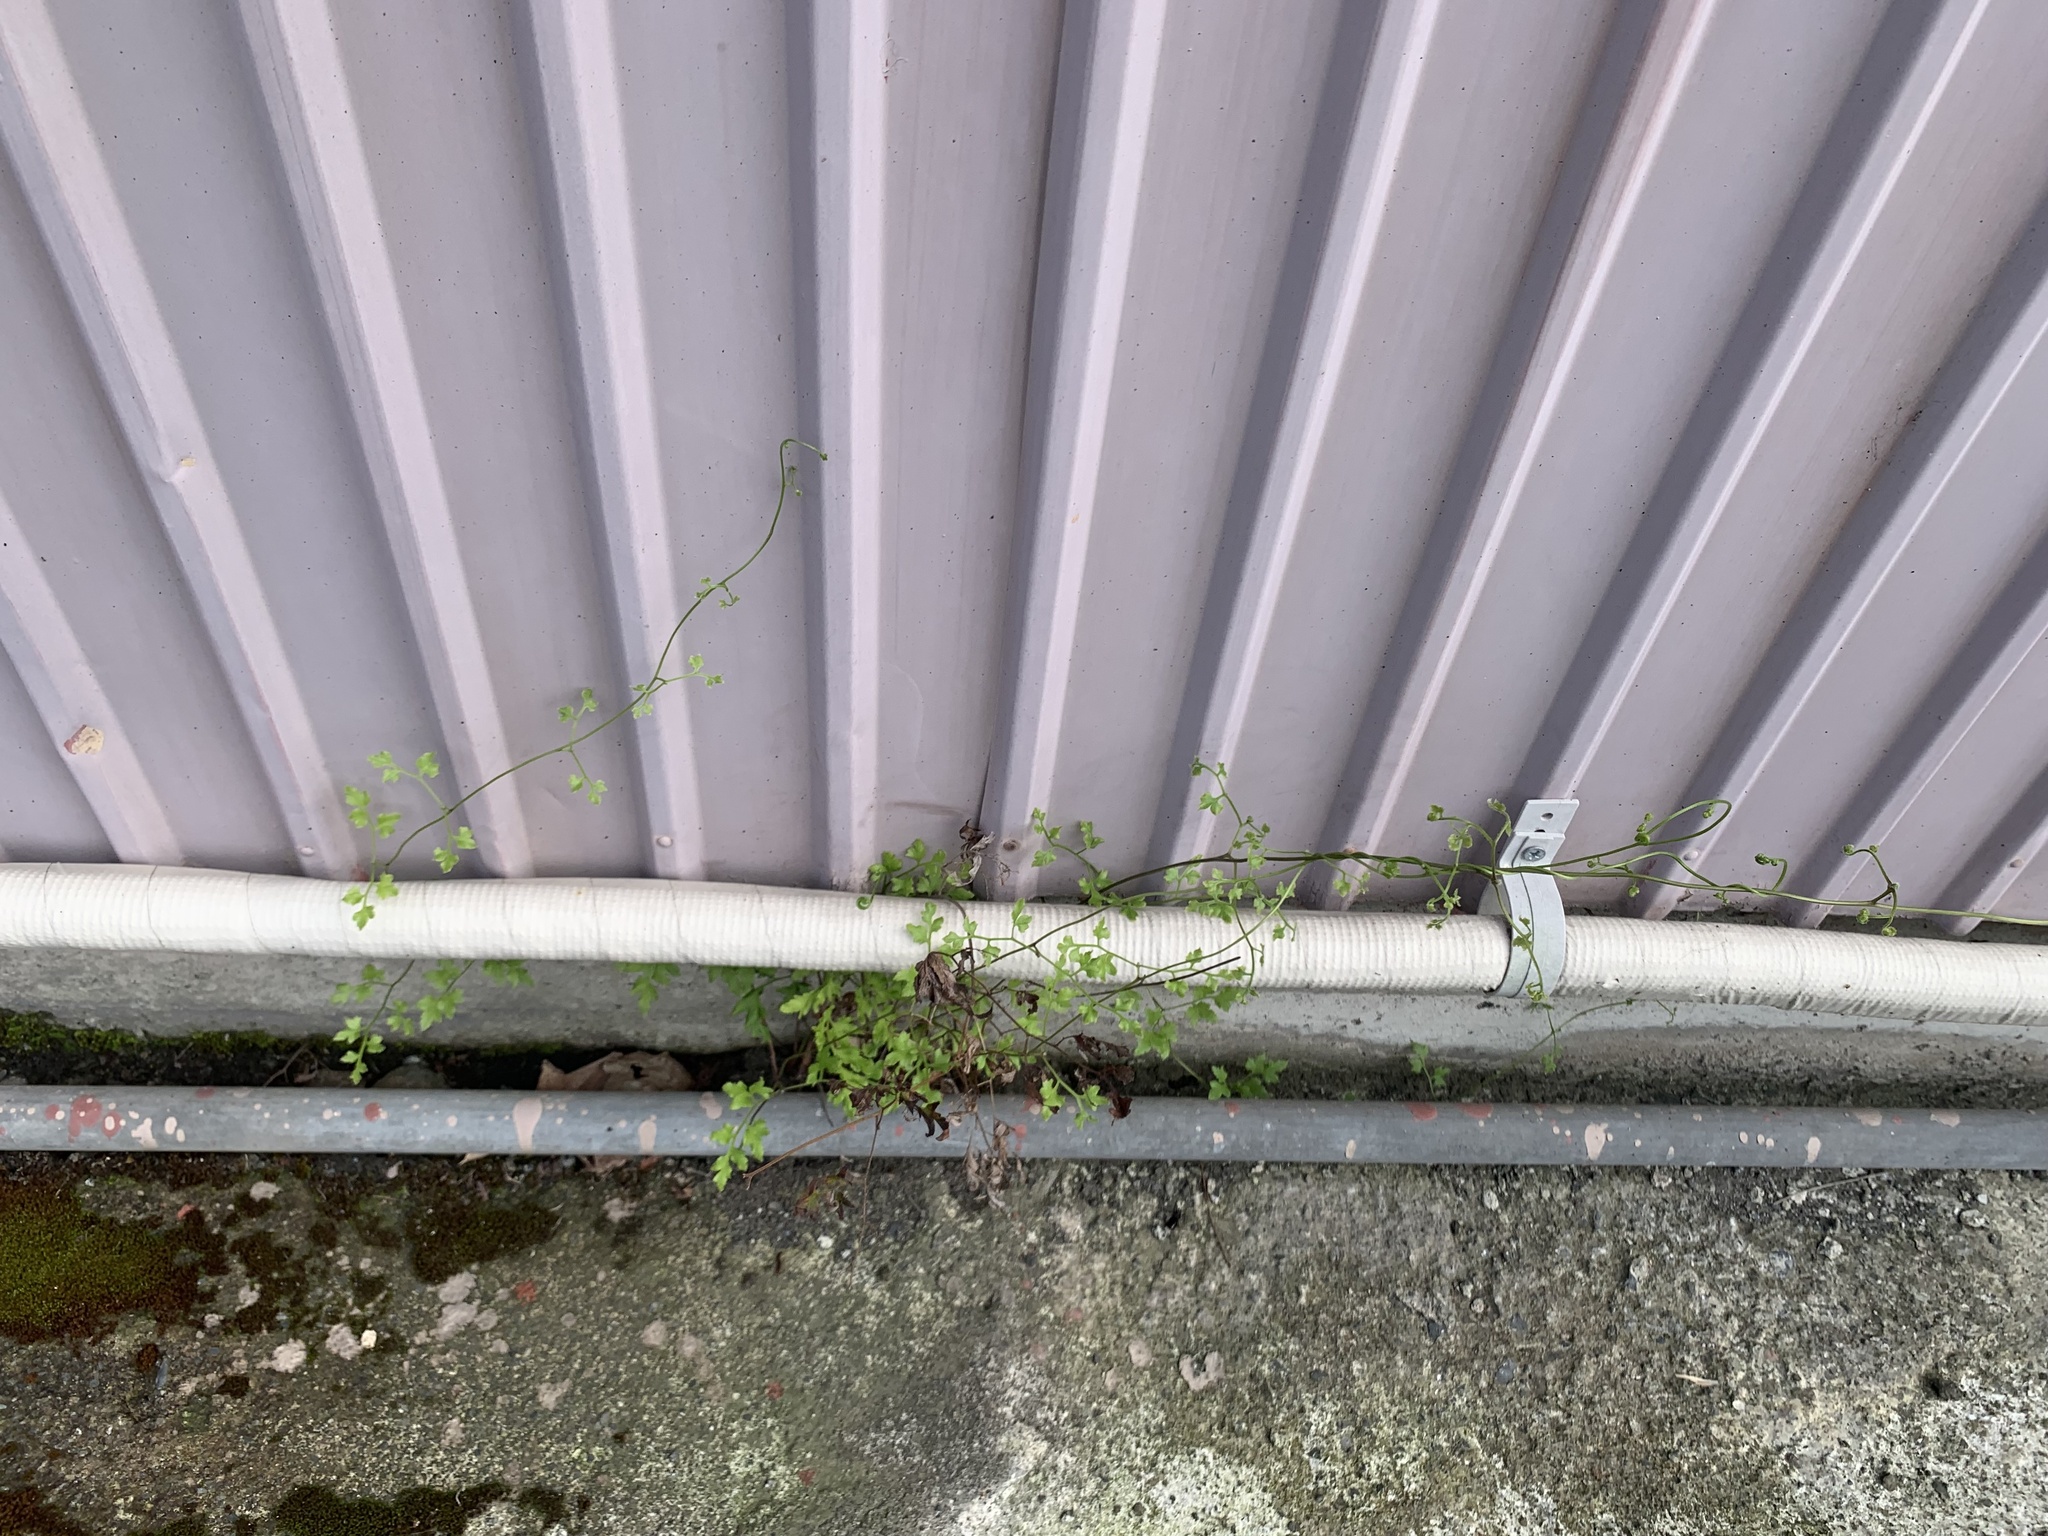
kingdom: Plantae
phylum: Tracheophyta
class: Polypodiopsida
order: Schizaeales
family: Lygodiaceae
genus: Lygodium
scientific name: Lygodium japonicum
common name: Japanese climbing fern
